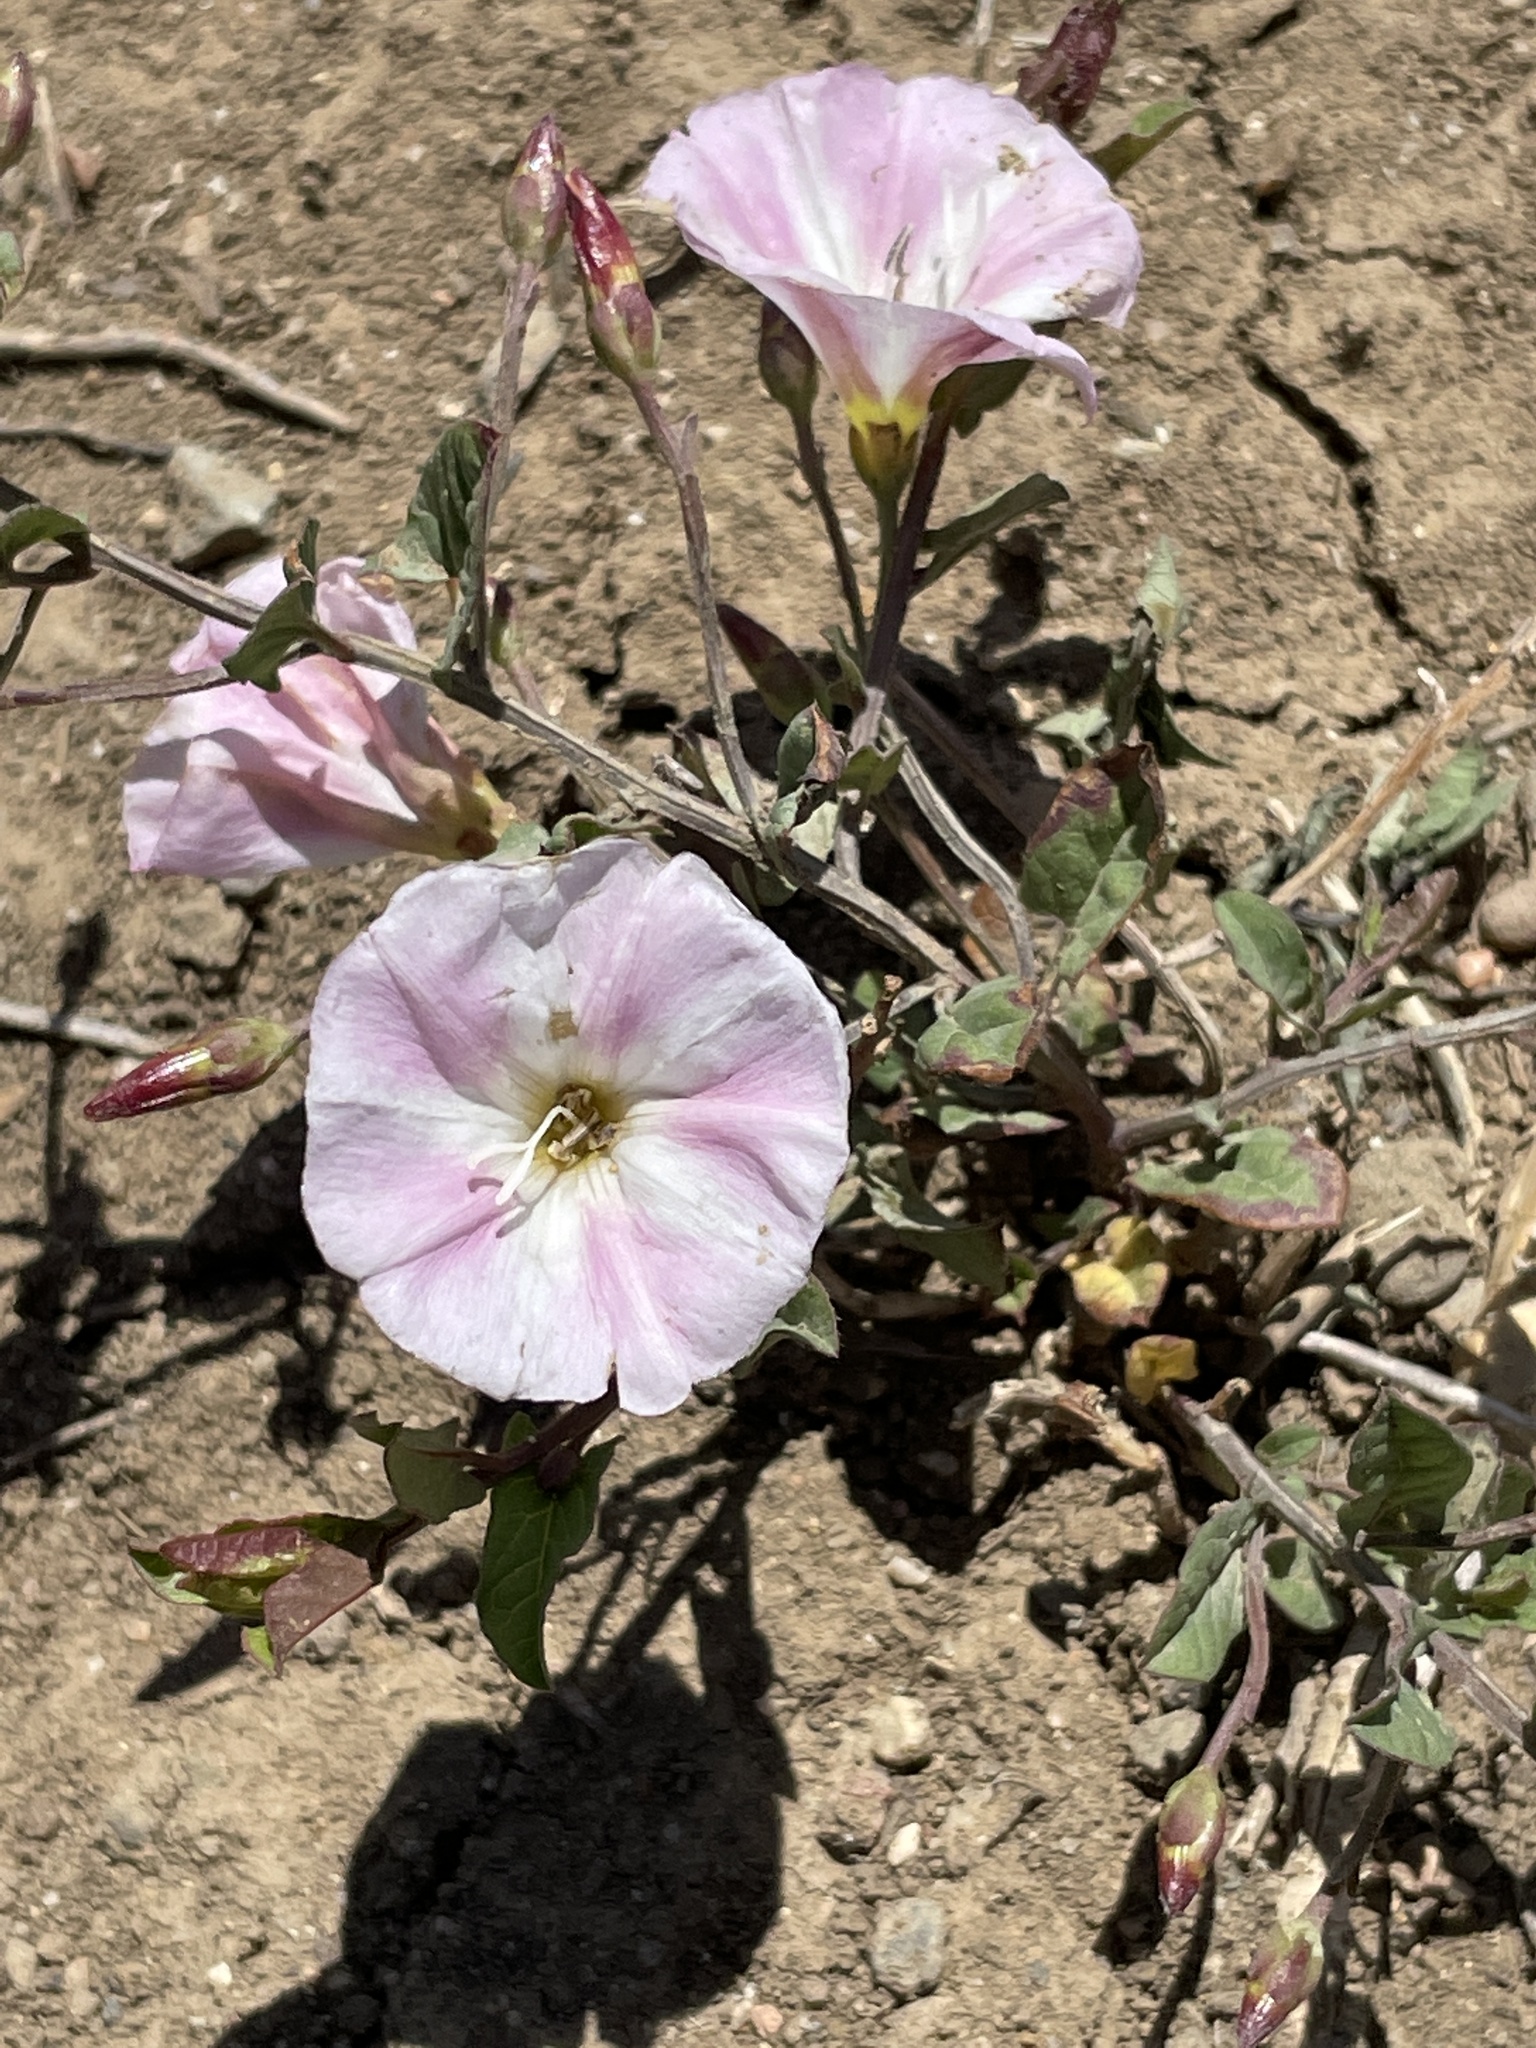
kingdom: Plantae
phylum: Tracheophyta
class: Magnoliopsida
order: Solanales
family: Convolvulaceae
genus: Convolvulus
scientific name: Convolvulus arvensis
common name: Field bindweed
